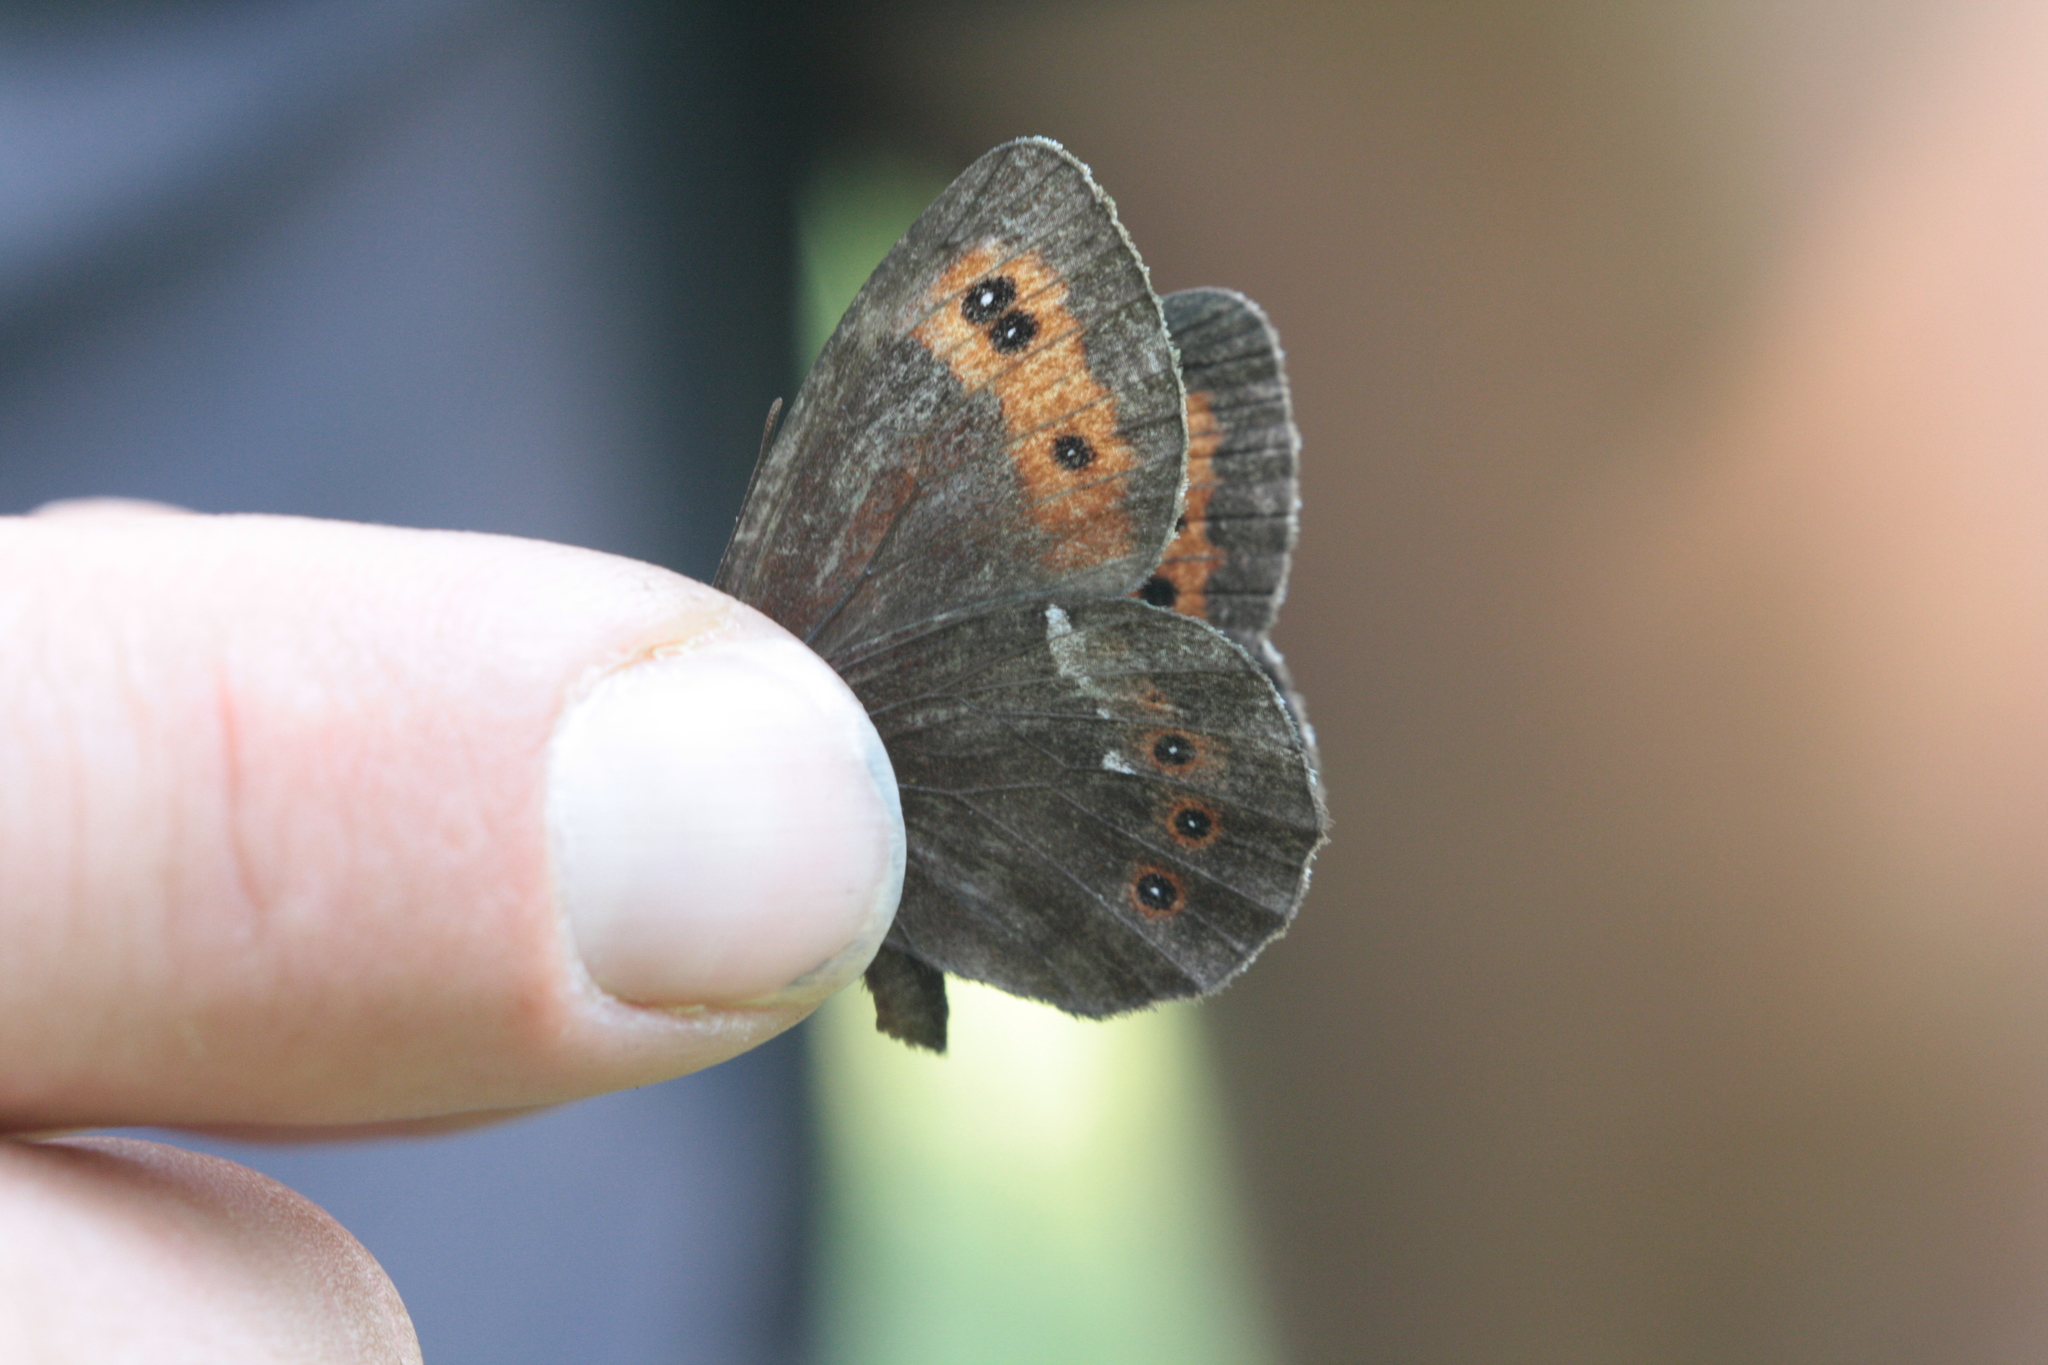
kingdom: Animalia
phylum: Arthropoda
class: Insecta
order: Lepidoptera
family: Nymphalidae
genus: Erebia
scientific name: Erebia ligea
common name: Arran brown
